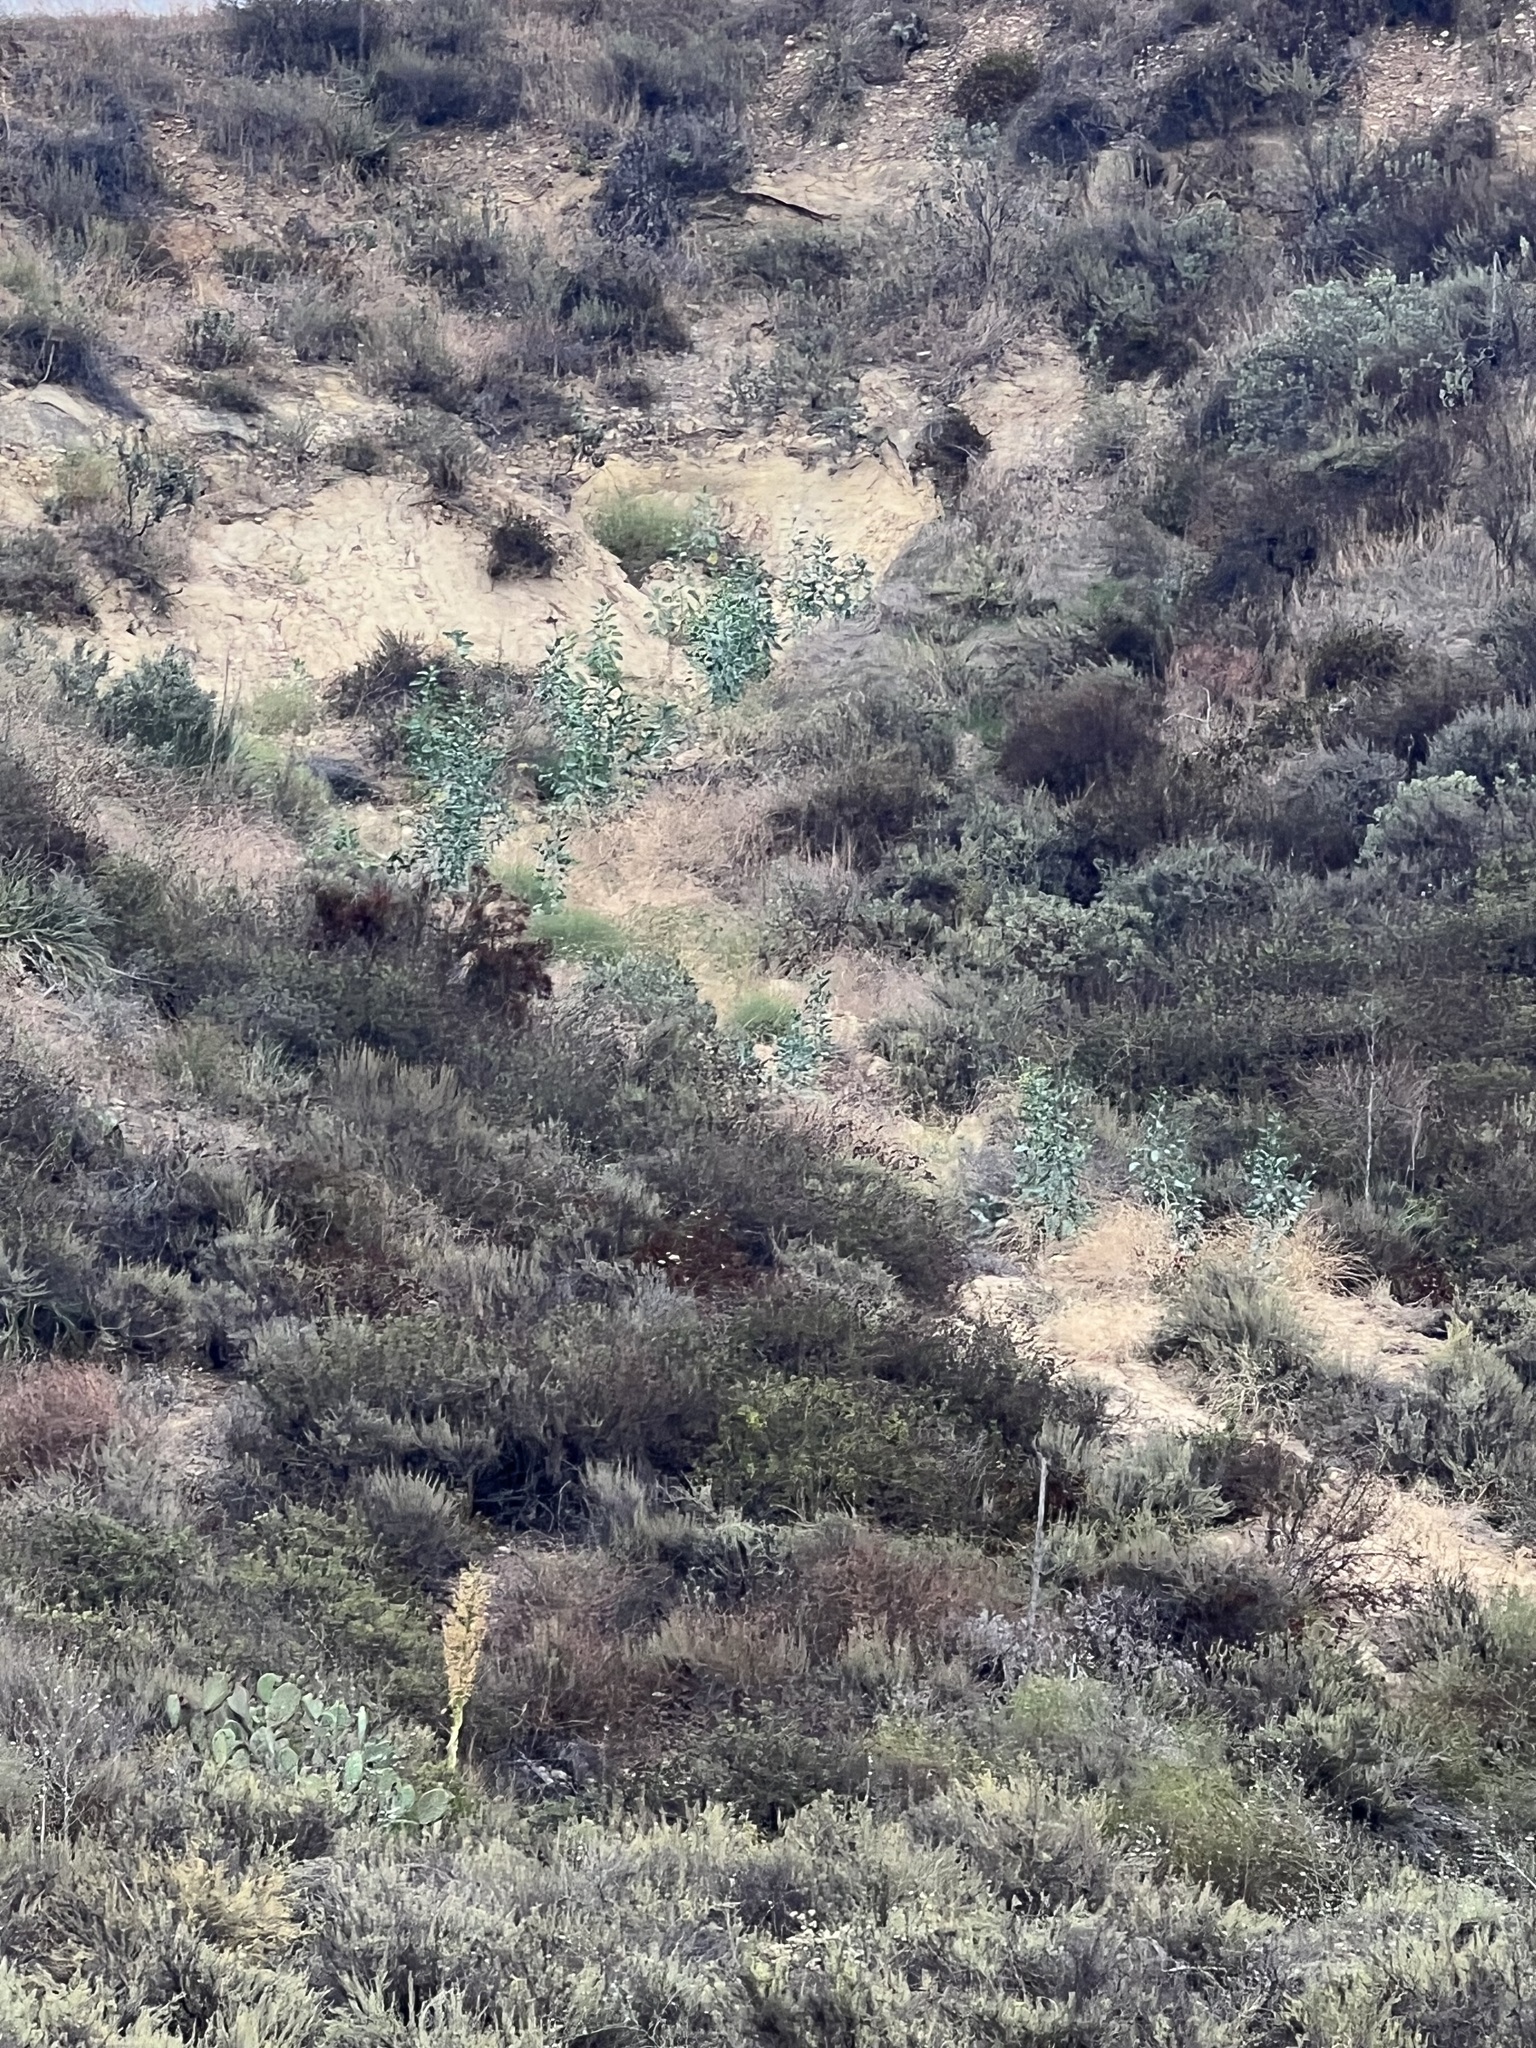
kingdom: Plantae
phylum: Tracheophyta
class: Magnoliopsida
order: Solanales
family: Solanaceae
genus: Nicotiana
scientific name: Nicotiana glauca
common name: Tree tobacco
